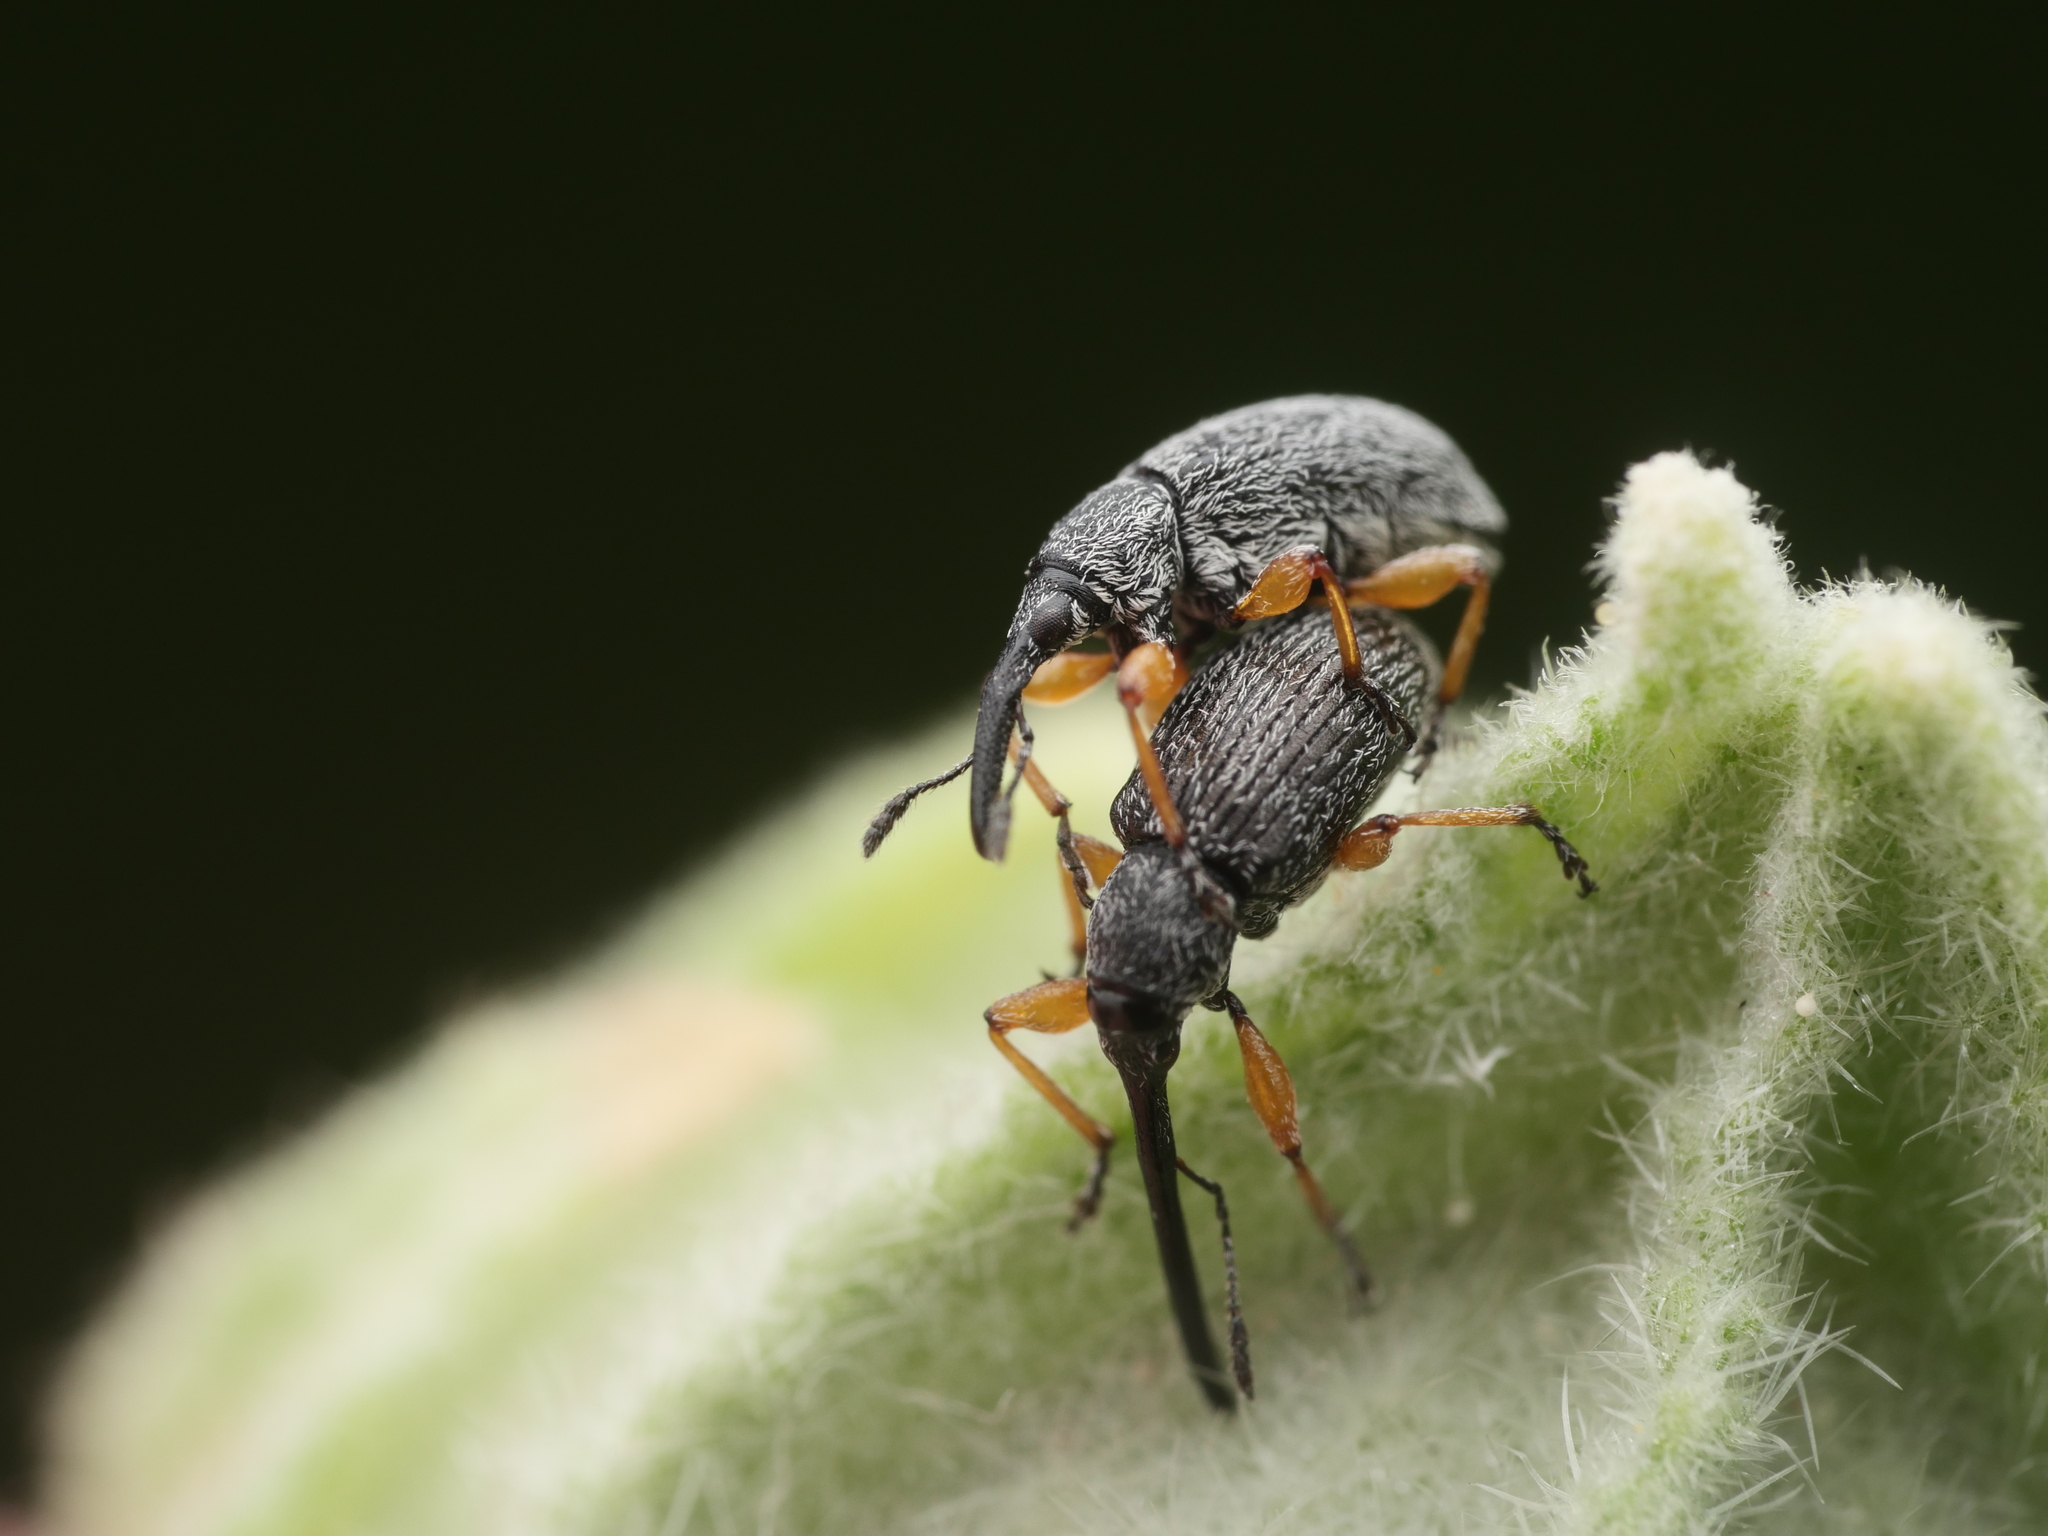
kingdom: Animalia
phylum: Arthropoda
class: Insecta
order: Coleoptera
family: Brentidae
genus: Rhopalapion
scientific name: Rhopalapion longirostre
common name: Hollyhock weevil
